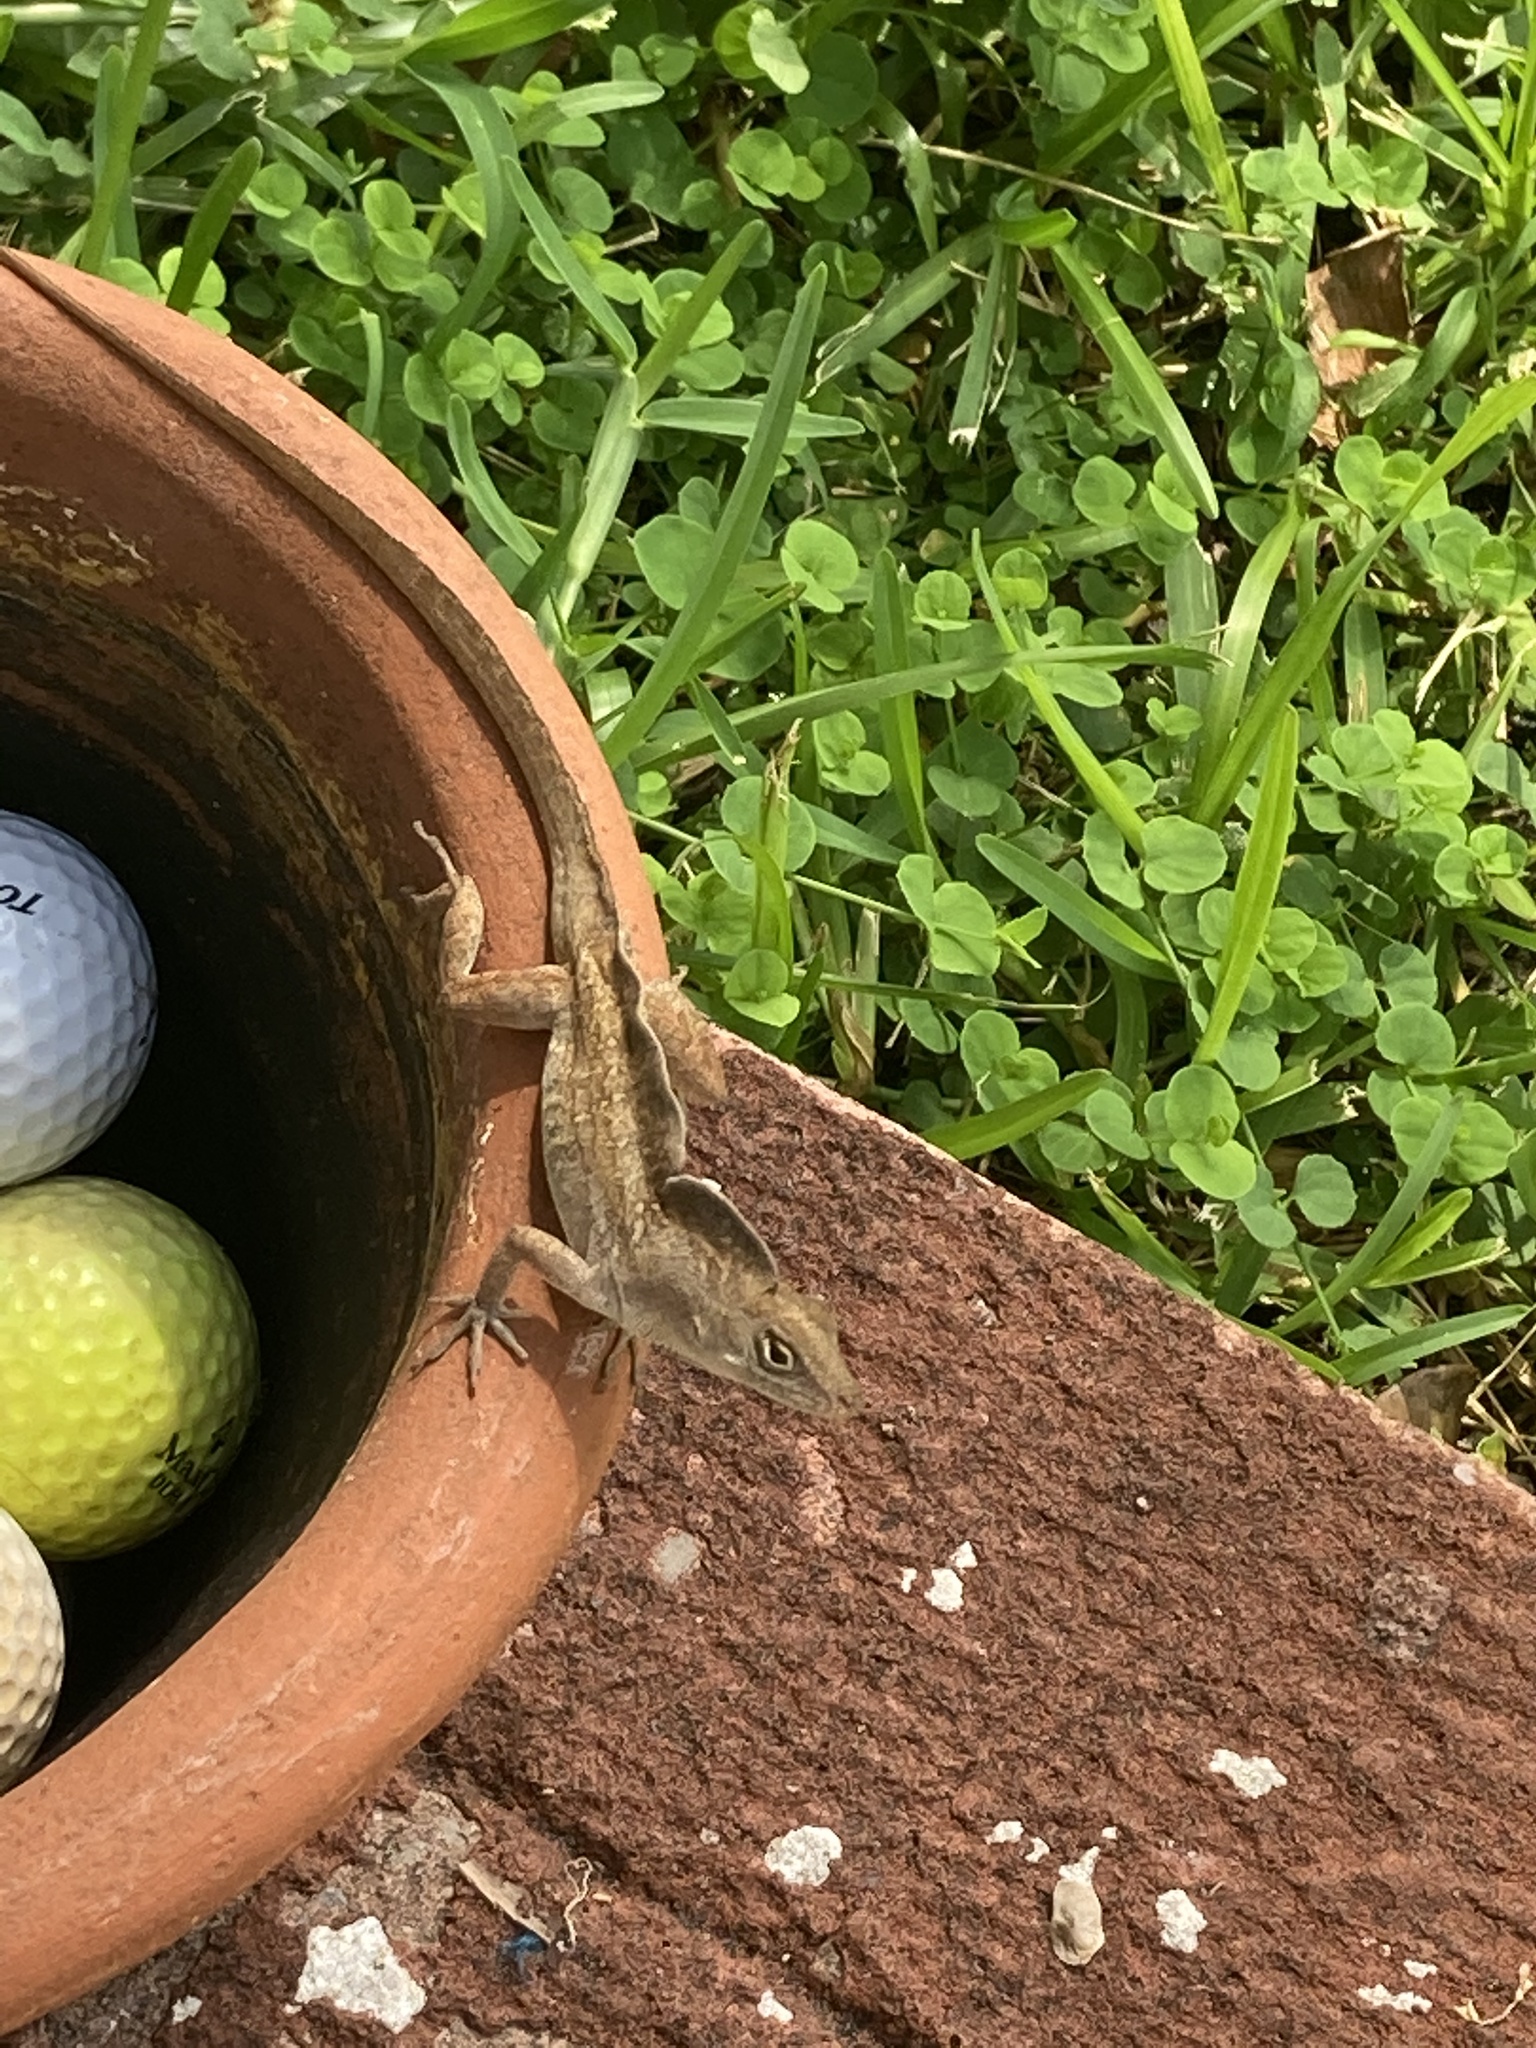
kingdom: Animalia
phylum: Chordata
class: Squamata
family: Dactyloidae
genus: Anolis
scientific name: Anolis sagrei
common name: Brown anole
